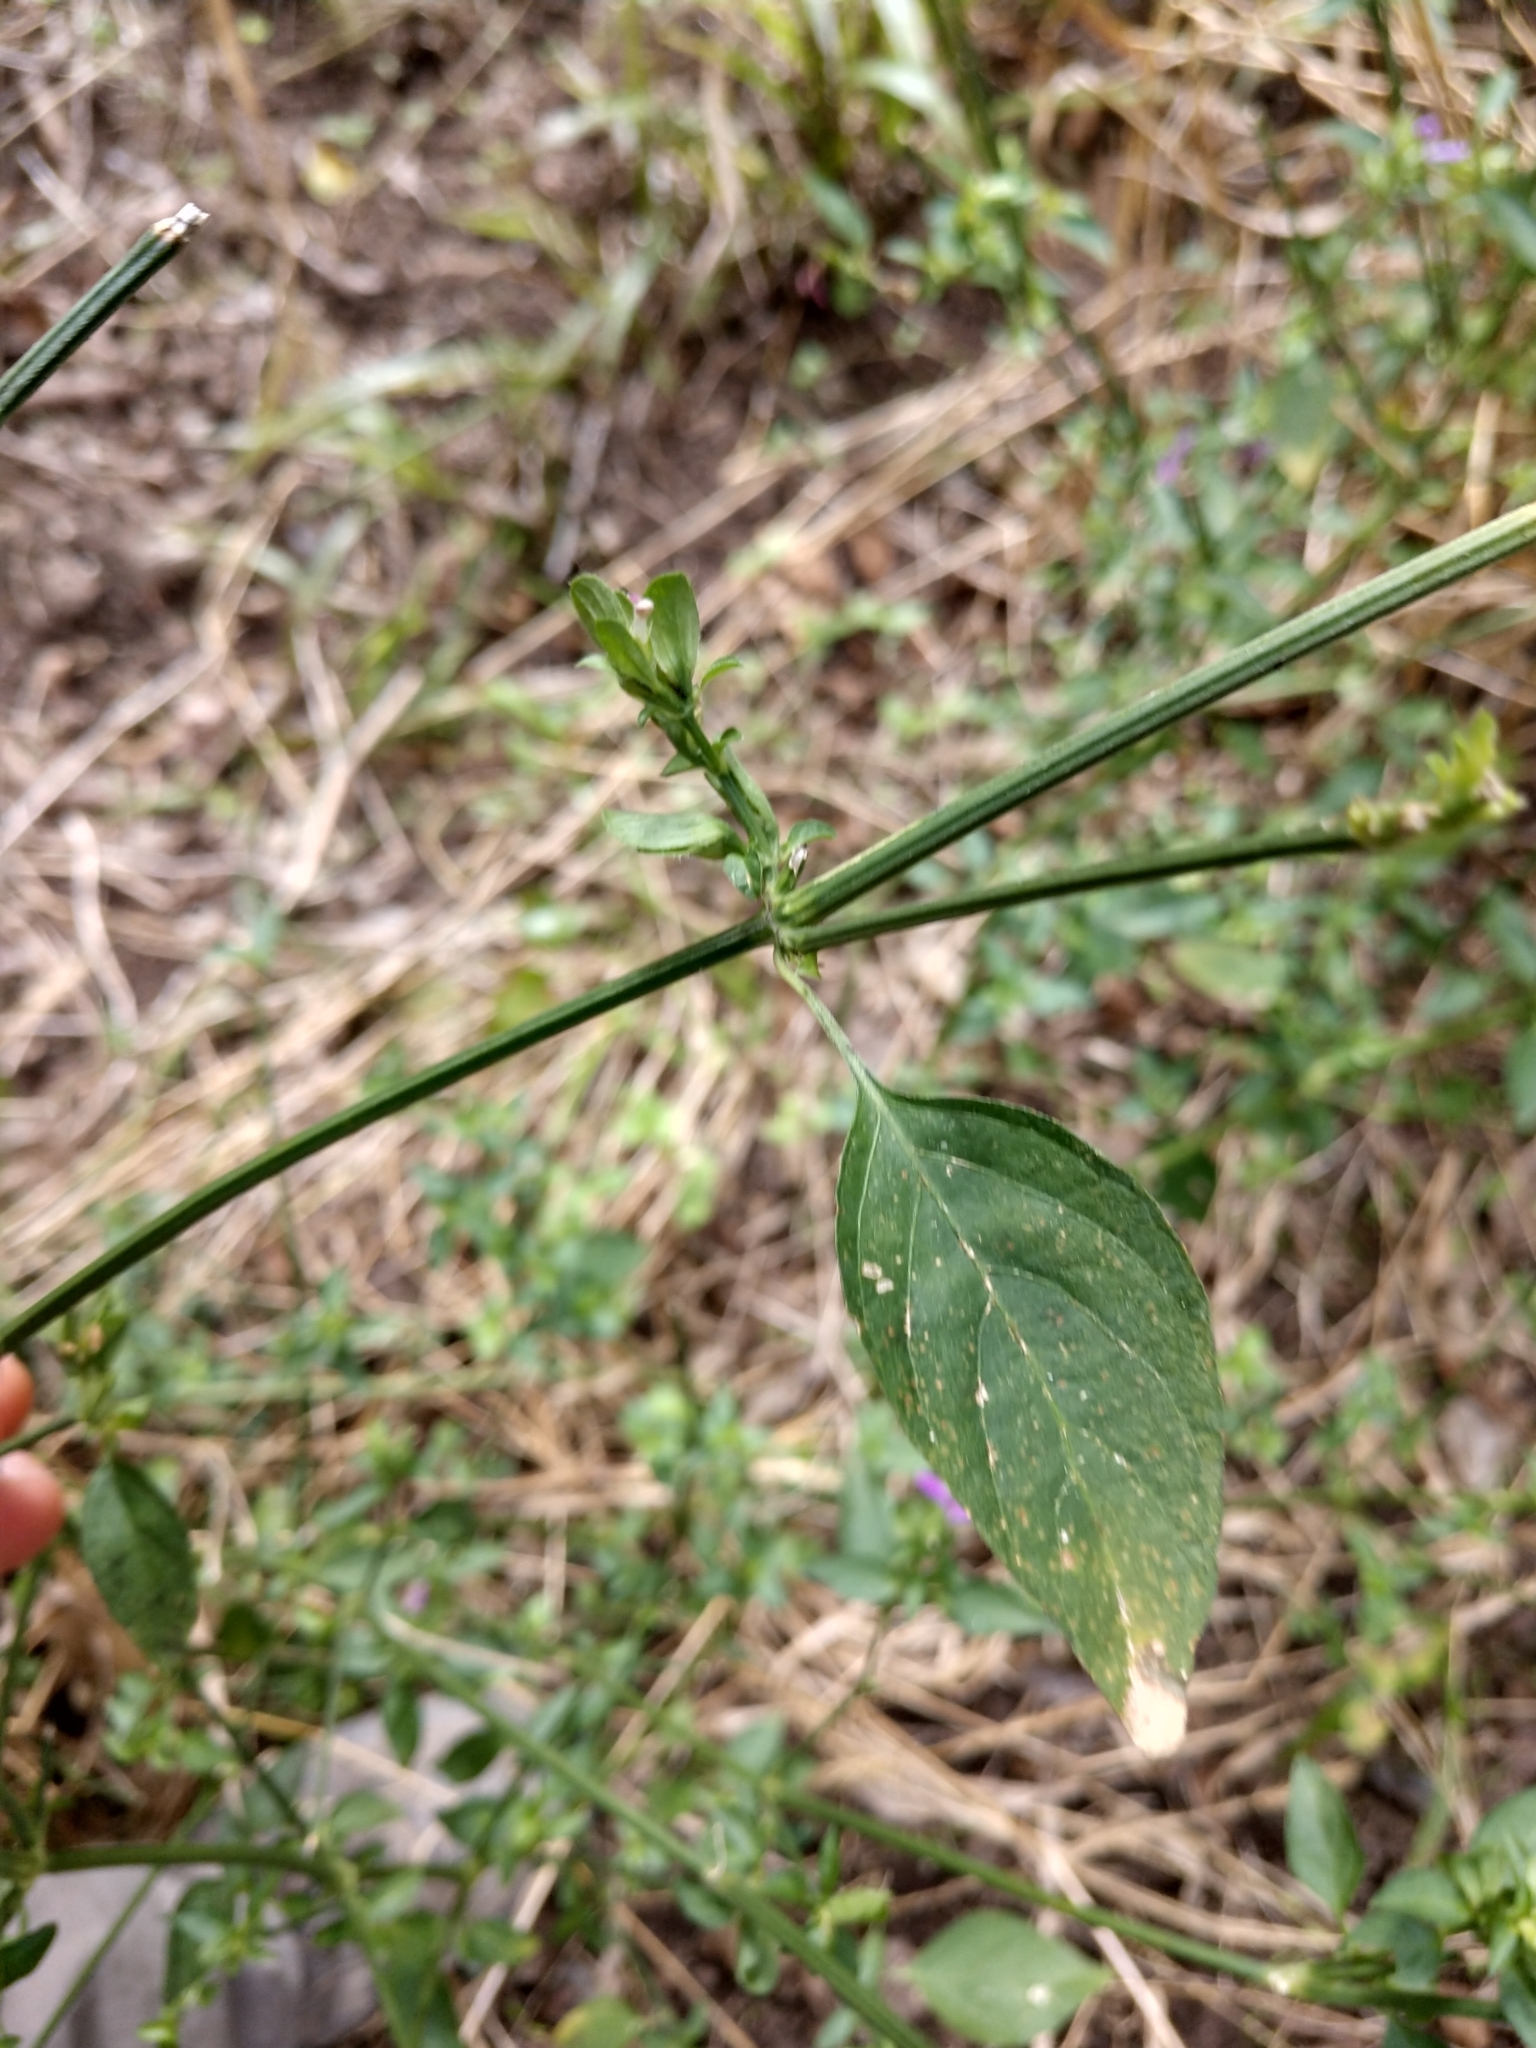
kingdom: Plantae
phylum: Tracheophyta
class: Magnoliopsida
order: Lamiales
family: Acanthaceae
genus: Dicliptera
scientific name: Dicliptera brachiata
